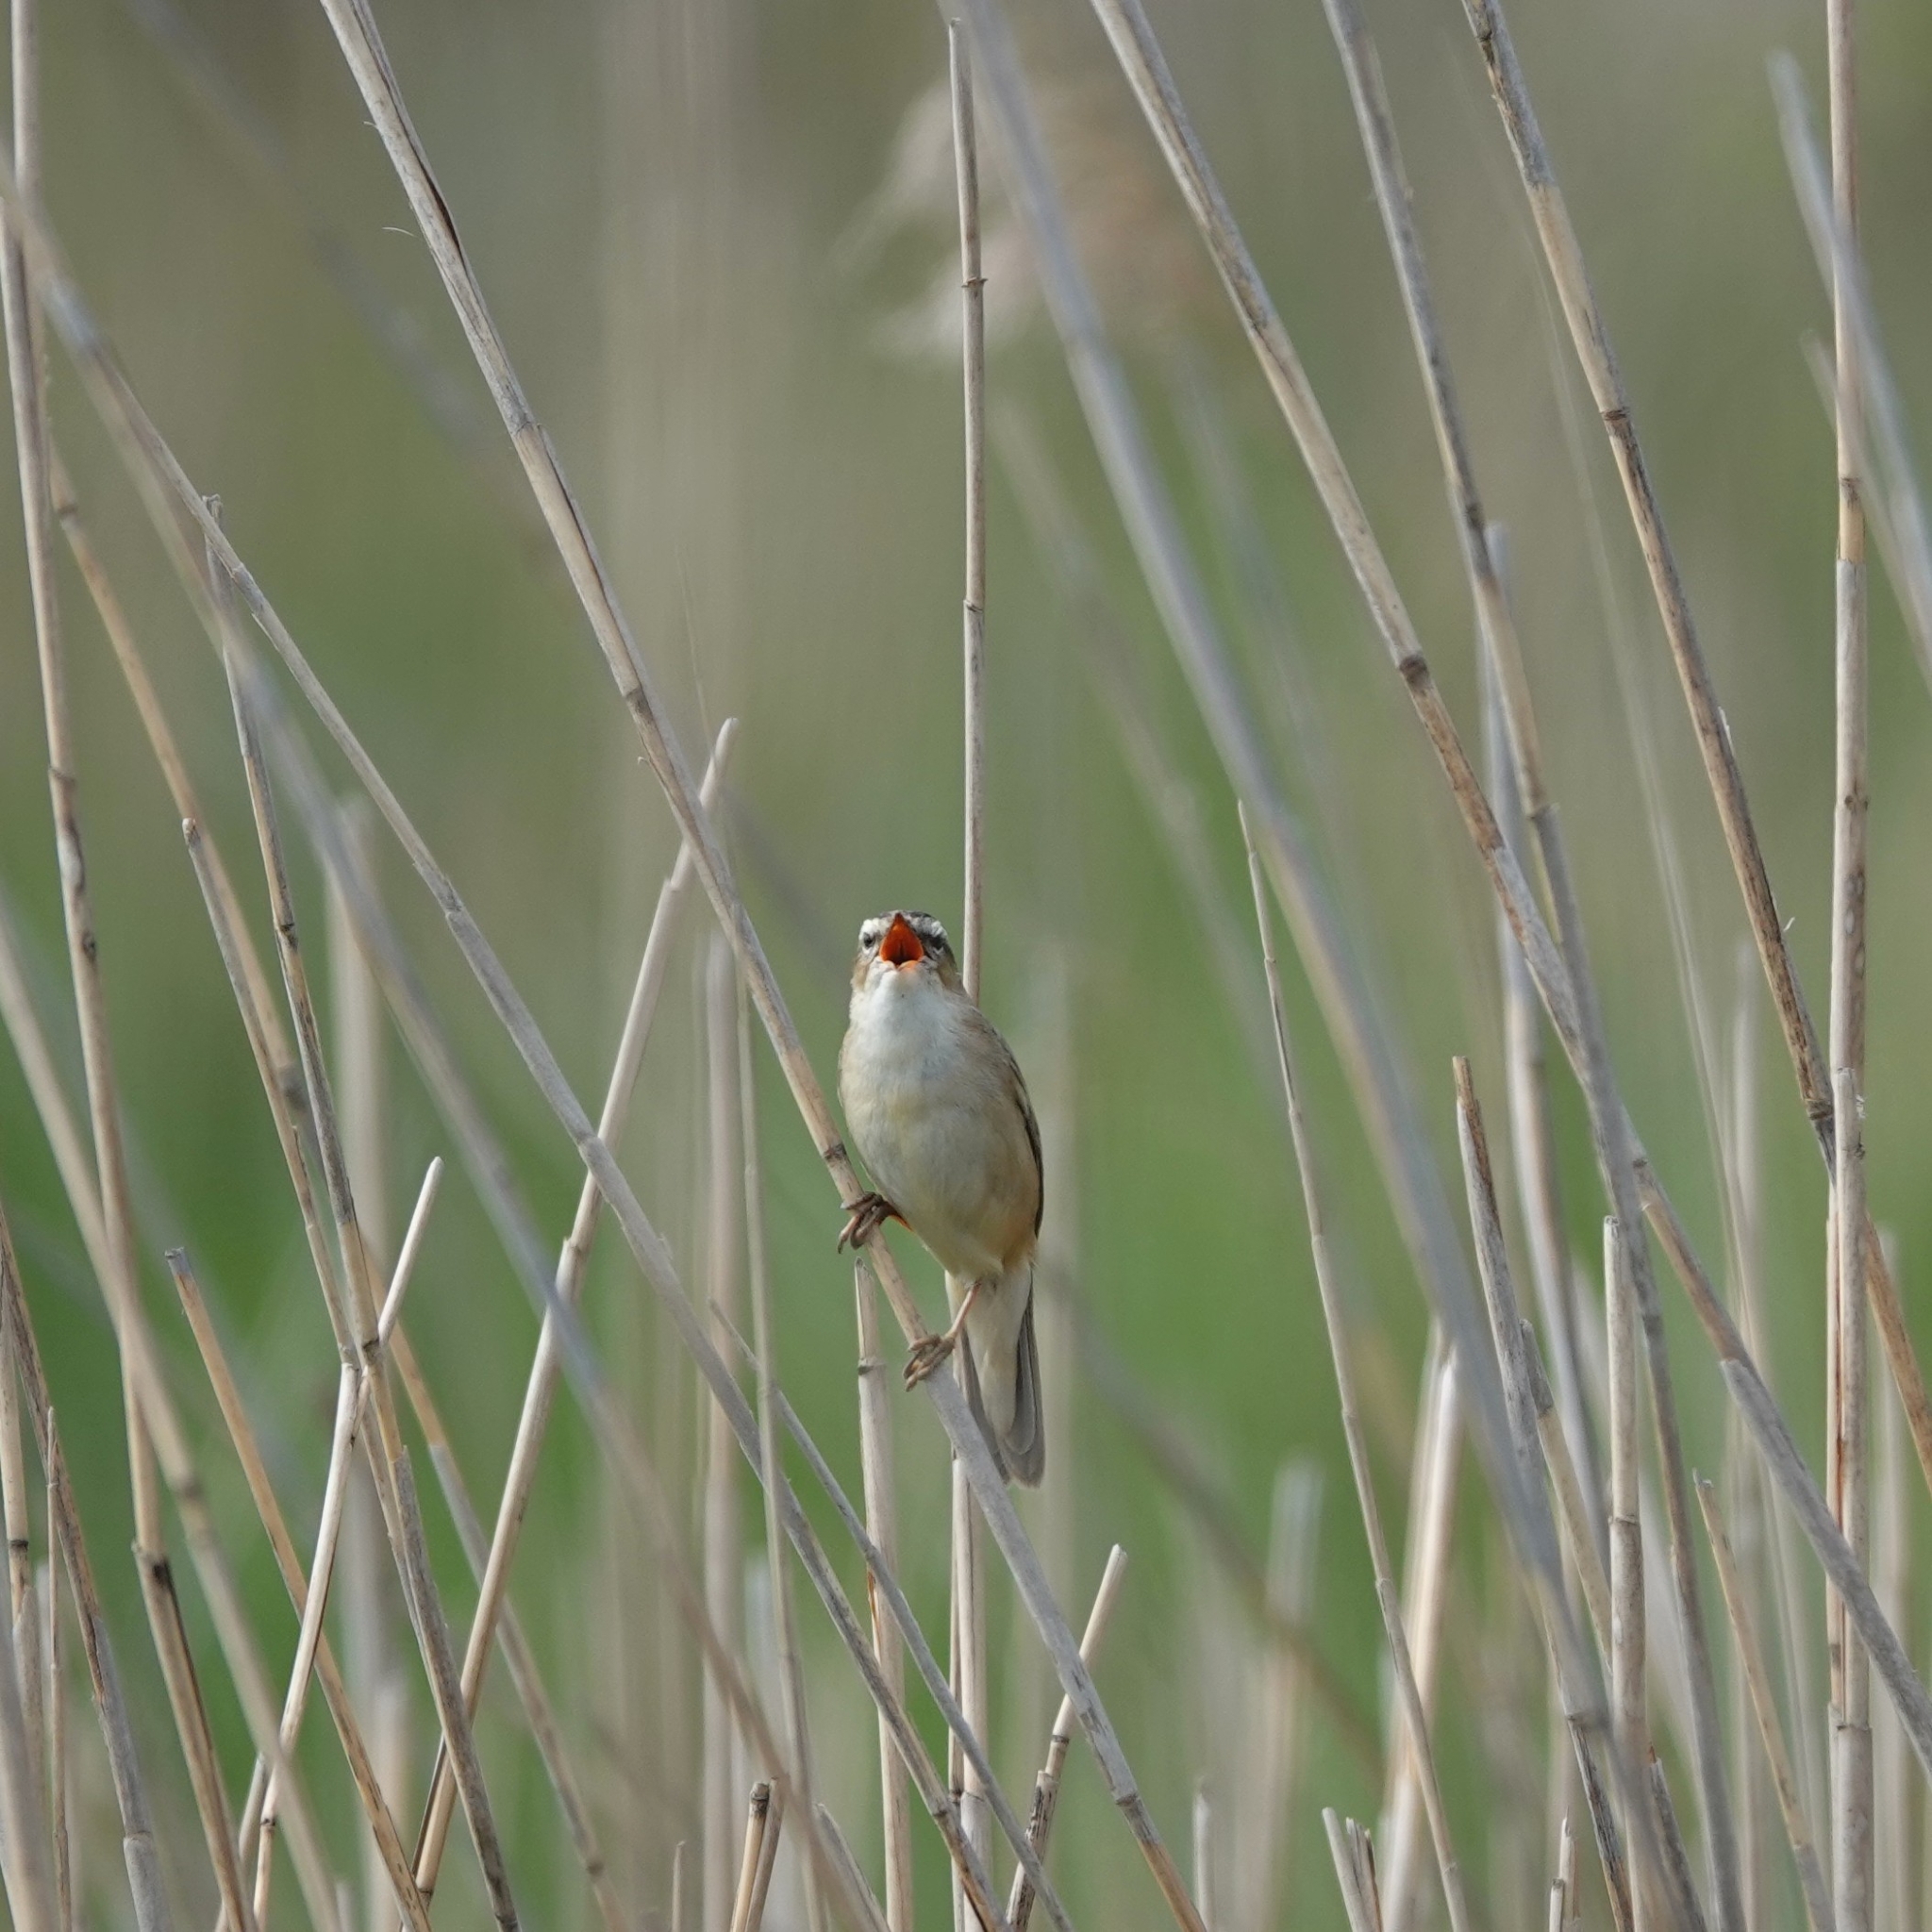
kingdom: Animalia
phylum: Chordata
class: Aves
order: Passeriformes
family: Acrocephalidae
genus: Acrocephalus
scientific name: Acrocephalus schoenobaenus
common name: Sedge warbler
